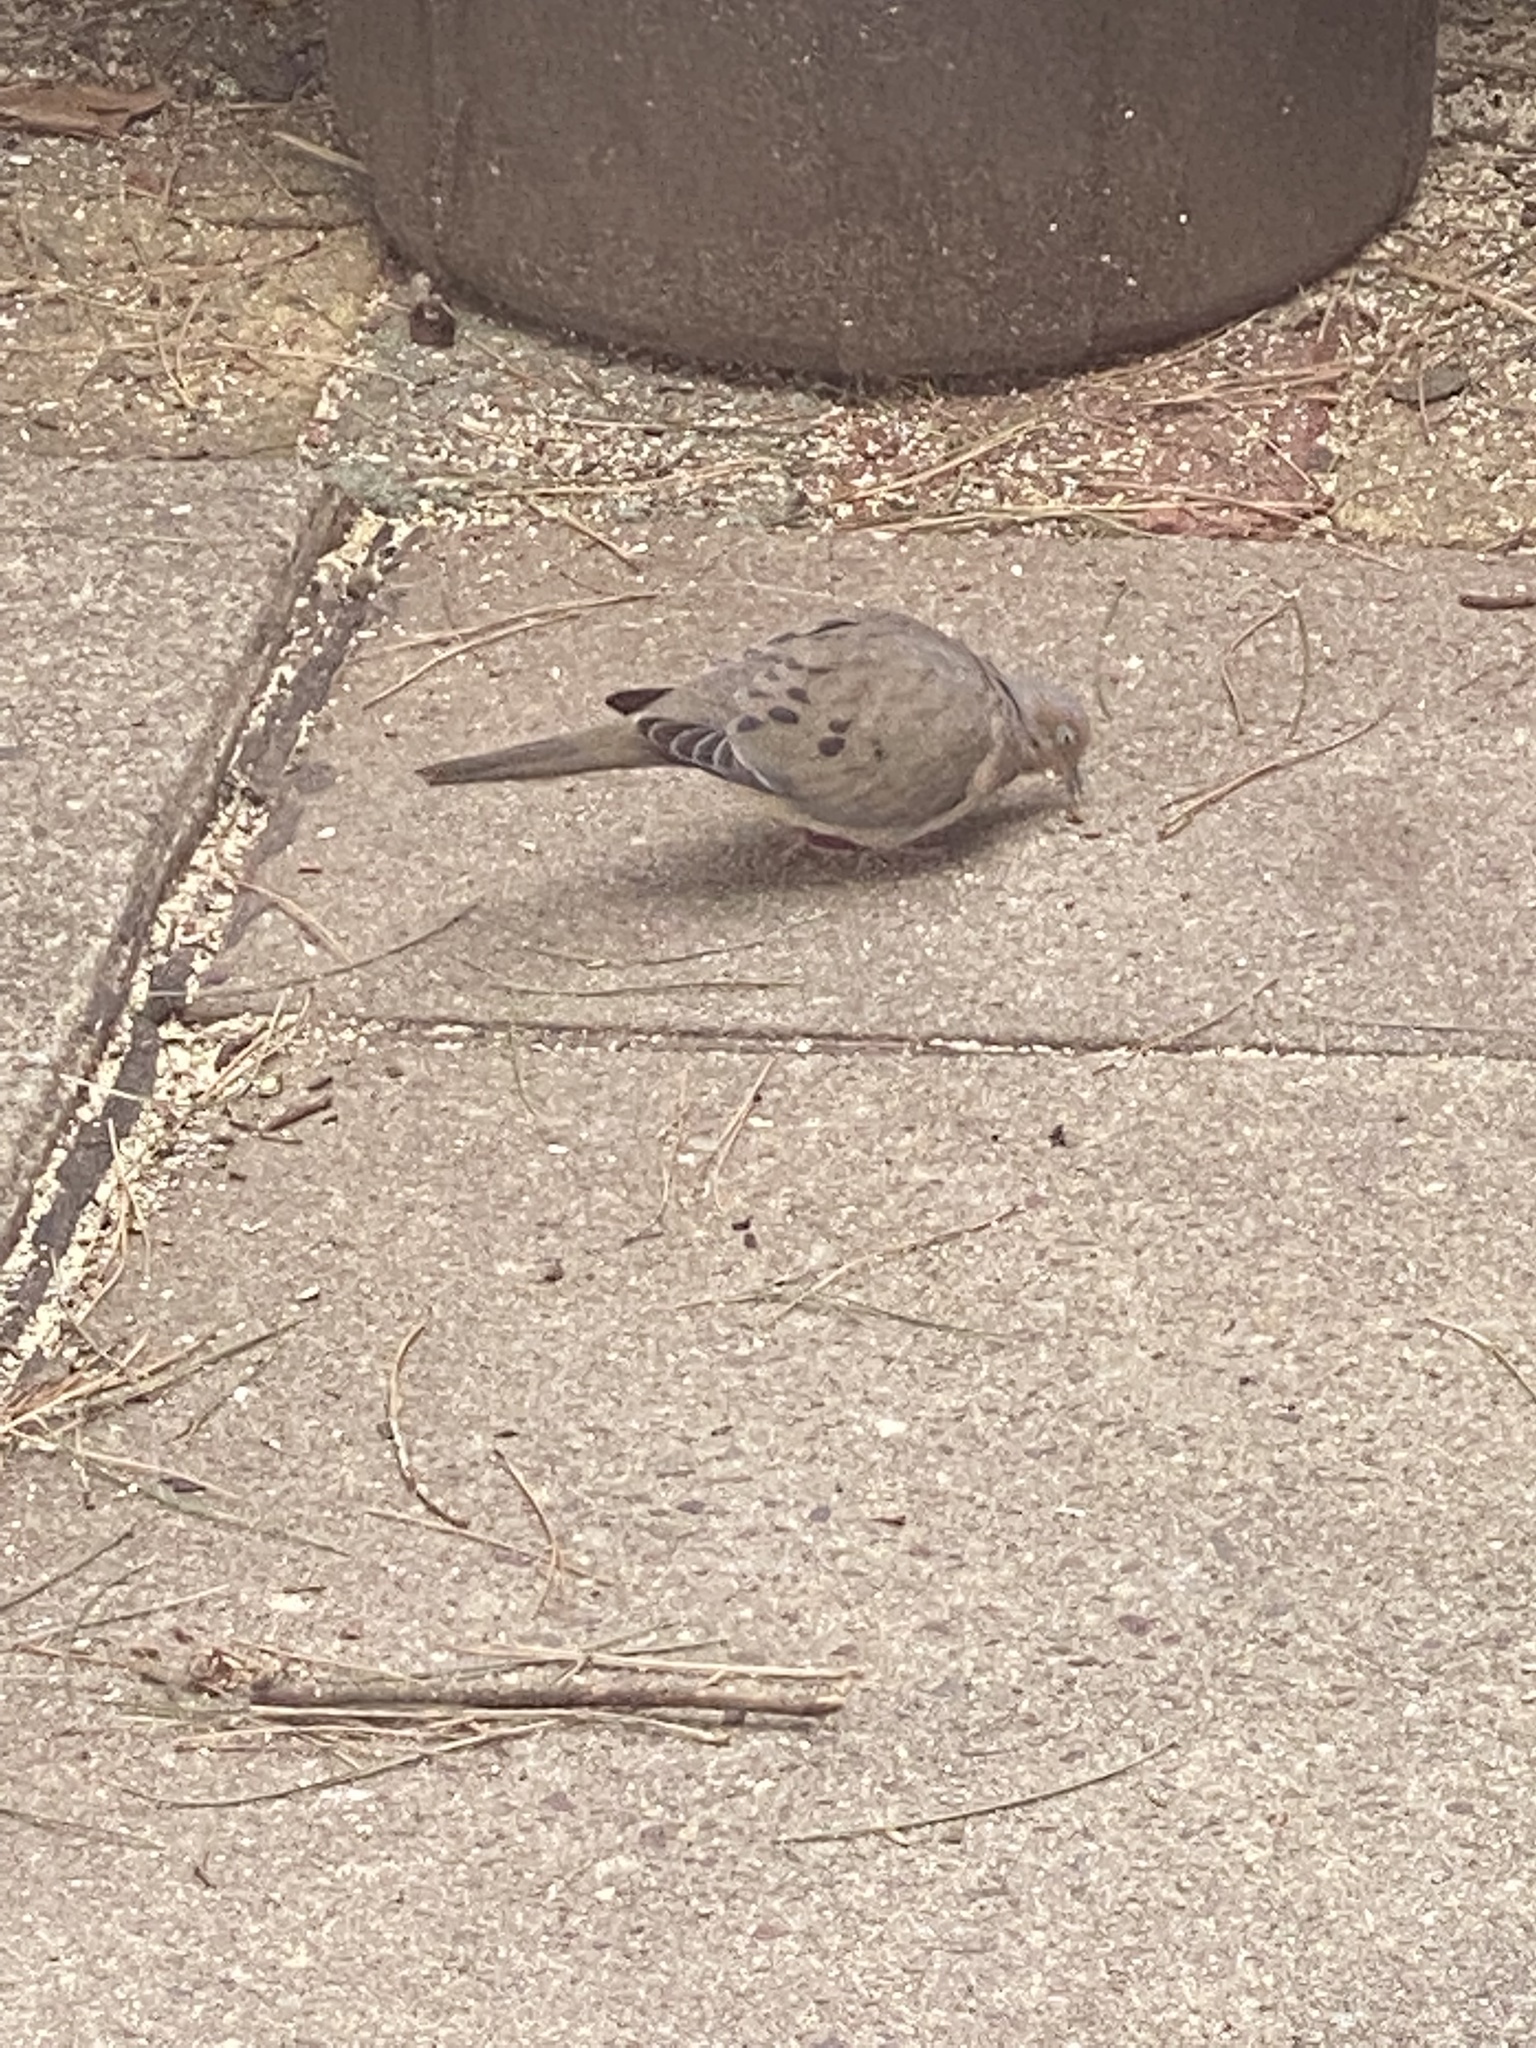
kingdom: Animalia
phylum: Chordata
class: Aves
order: Columbiformes
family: Columbidae
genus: Zenaida
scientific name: Zenaida macroura
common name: Mourning dove
